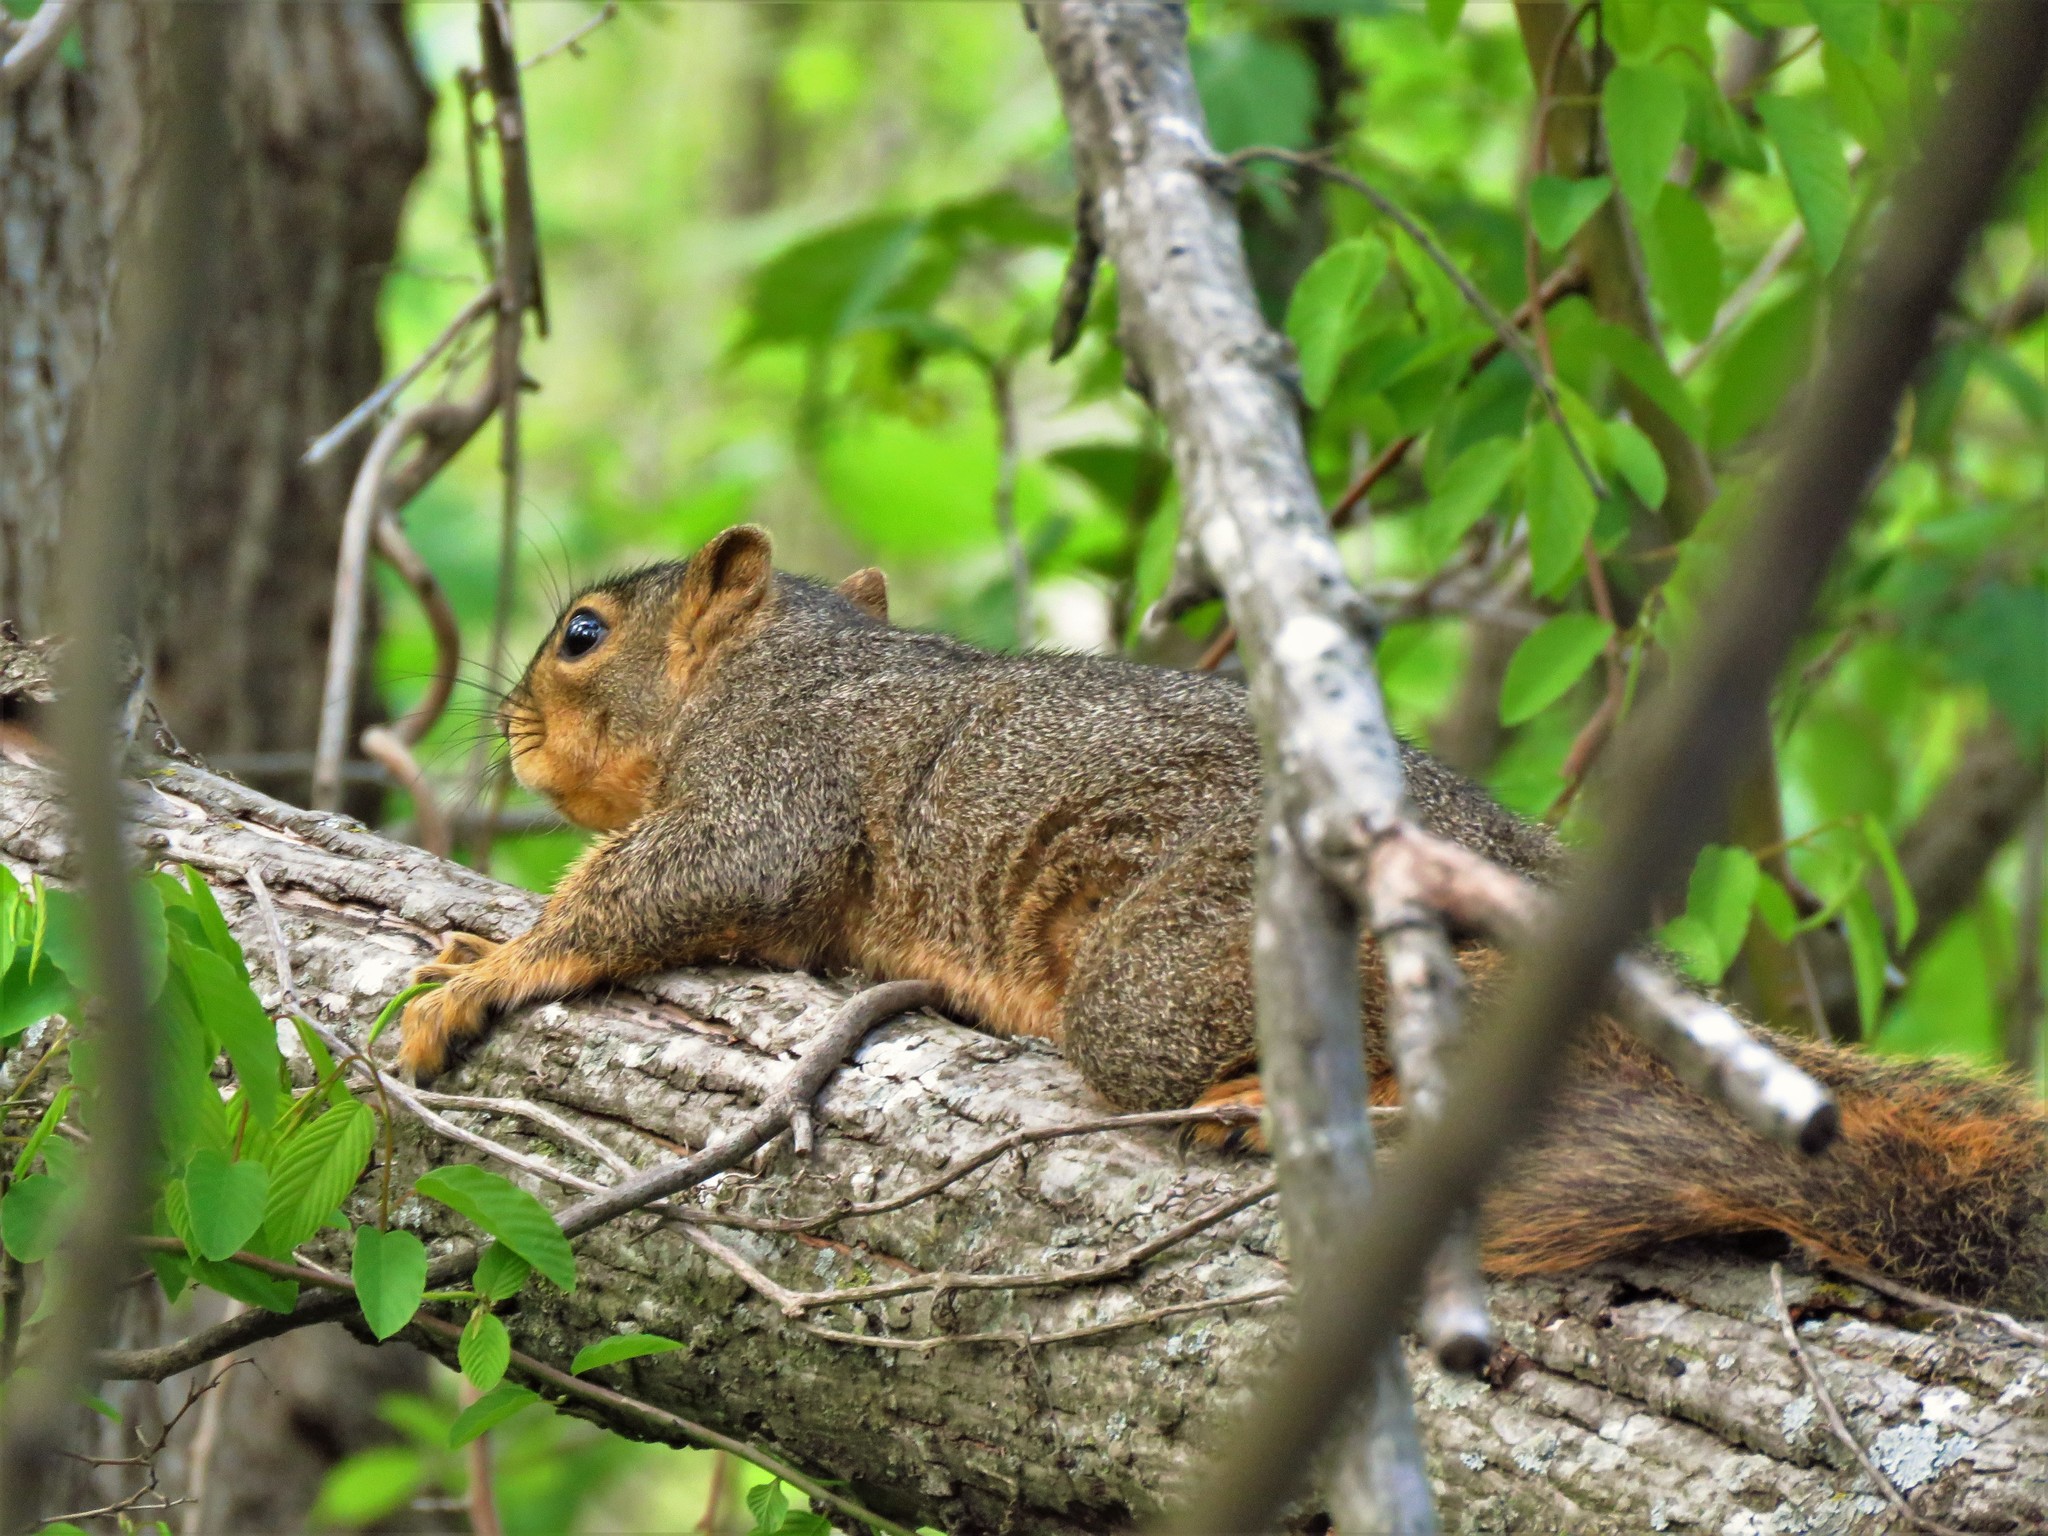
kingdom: Animalia
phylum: Chordata
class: Mammalia
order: Rodentia
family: Sciuridae
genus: Sciurus
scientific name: Sciurus niger
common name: Fox squirrel
